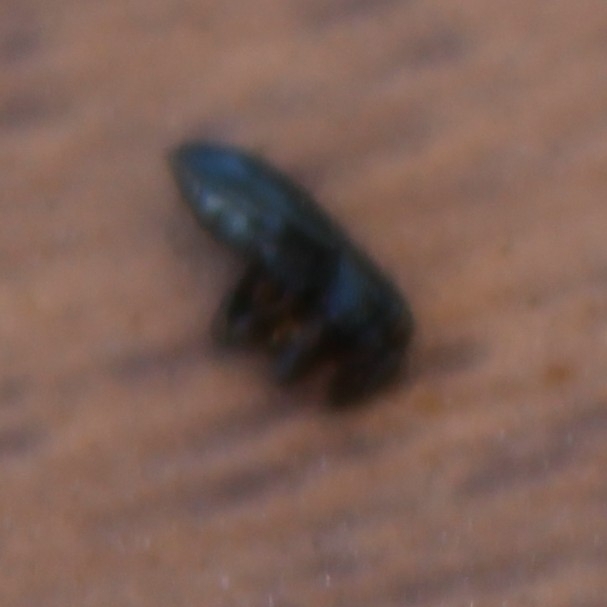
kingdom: Animalia
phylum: Arthropoda
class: Insecta
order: Coleoptera
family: Curculionidae
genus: Aulacobaris
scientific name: Aulacobaris lepidii
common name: Cress tooth weevil
